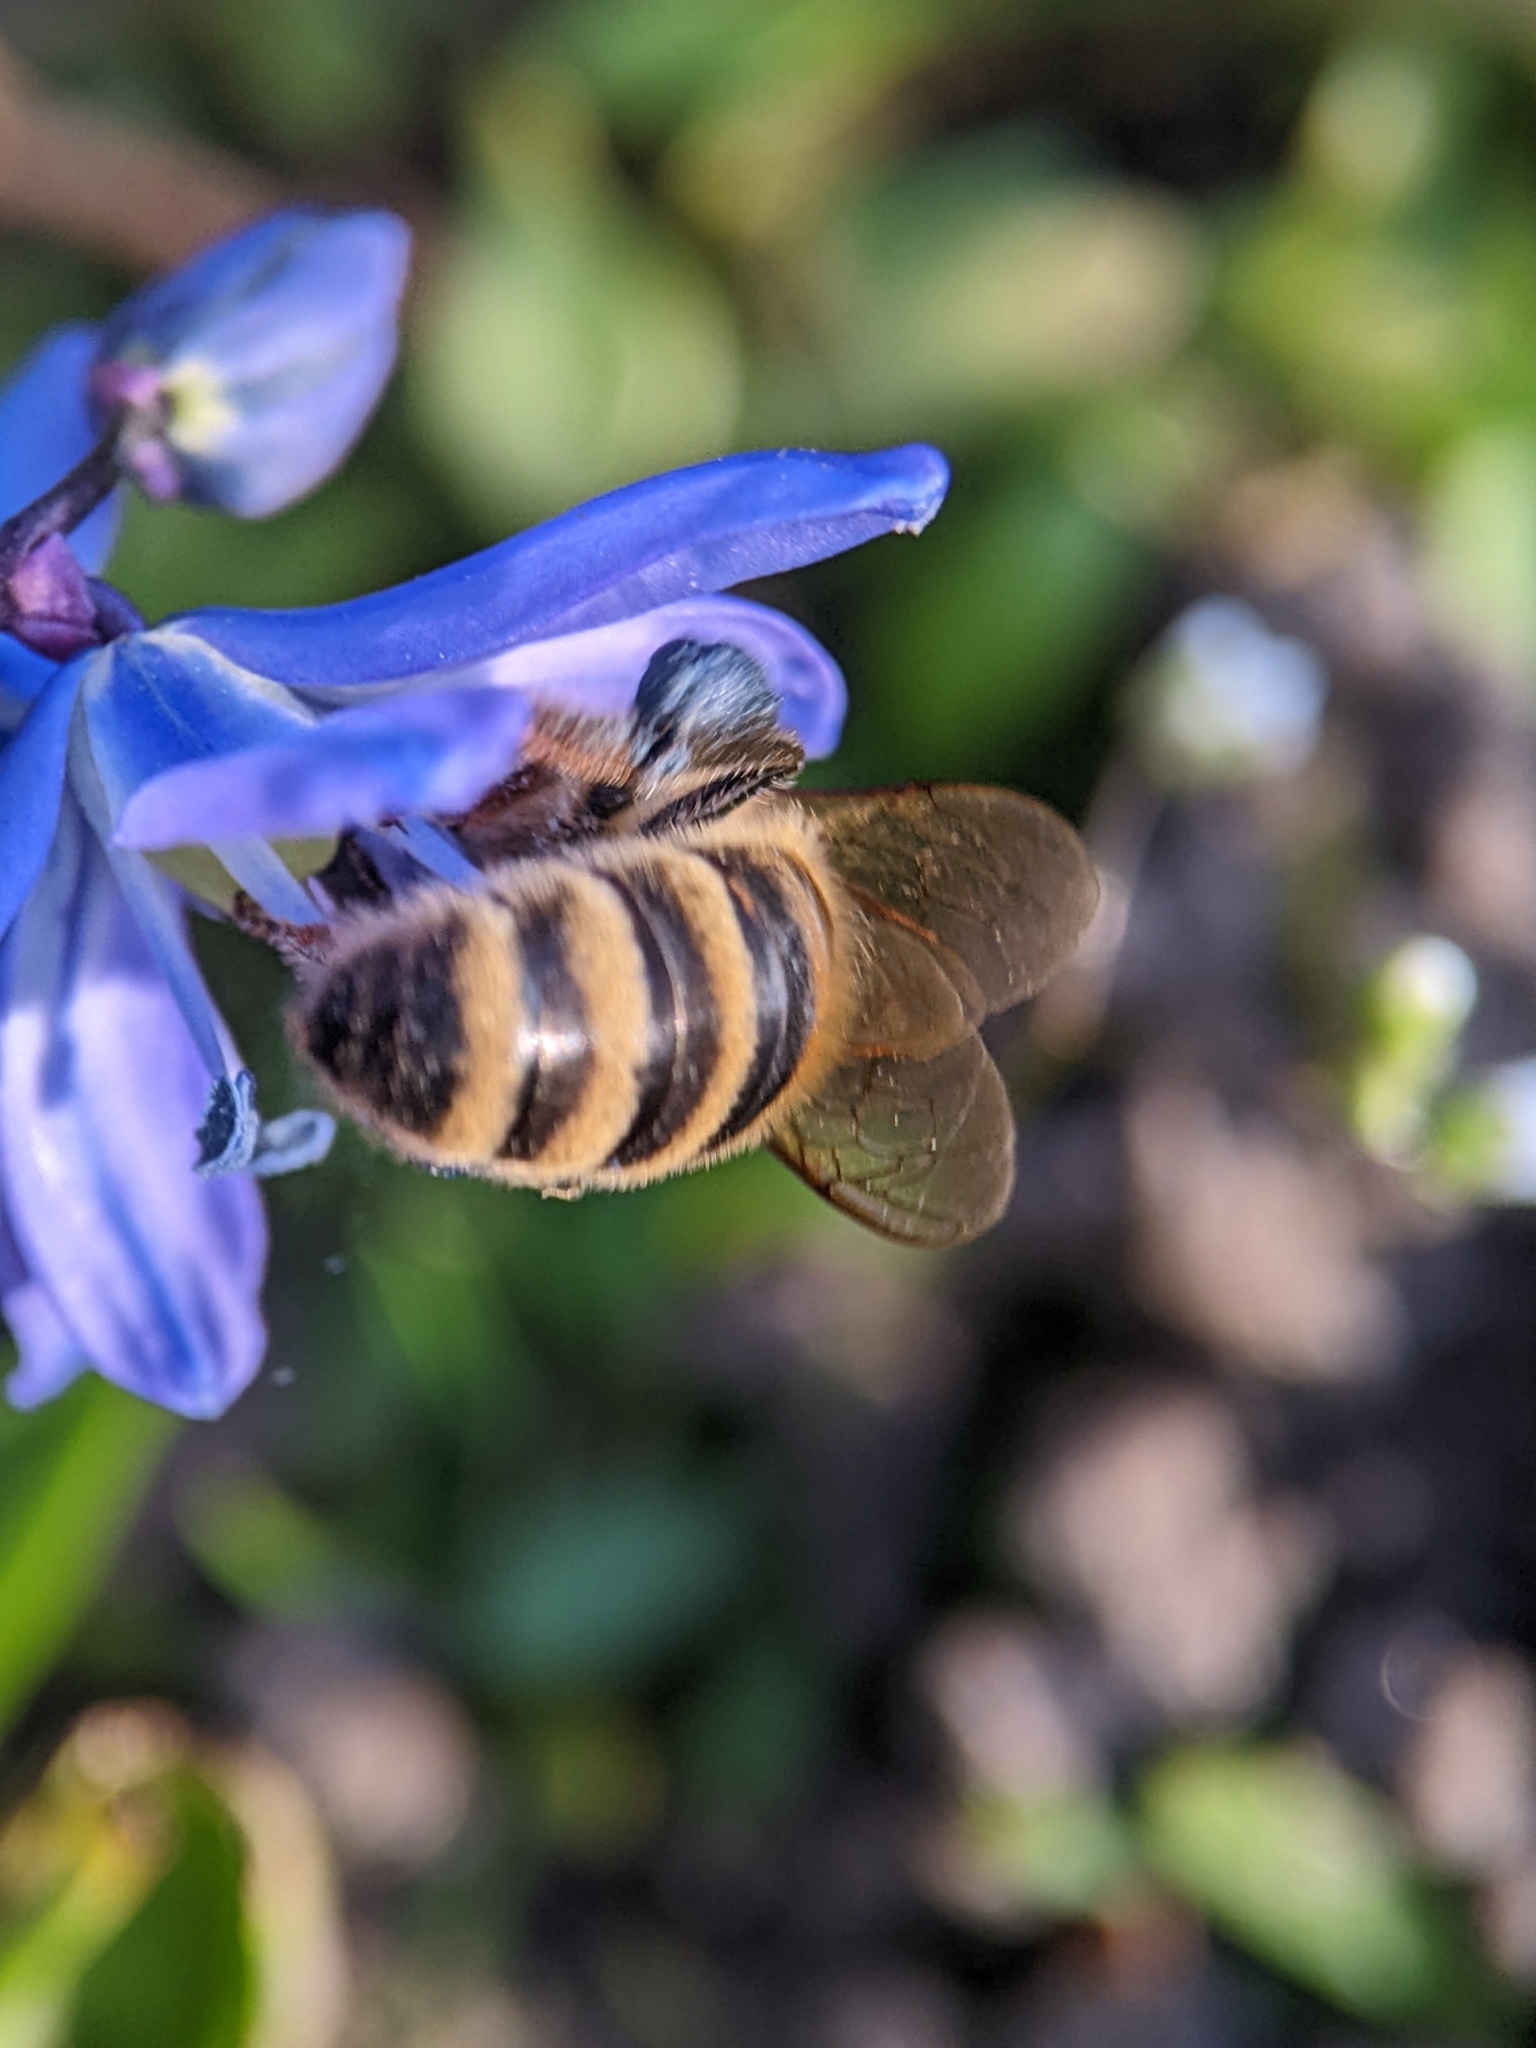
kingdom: Animalia
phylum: Arthropoda
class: Insecta
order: Hymenoptera
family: Apidae
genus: Apis
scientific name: Apis mellifera
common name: Honey bee
